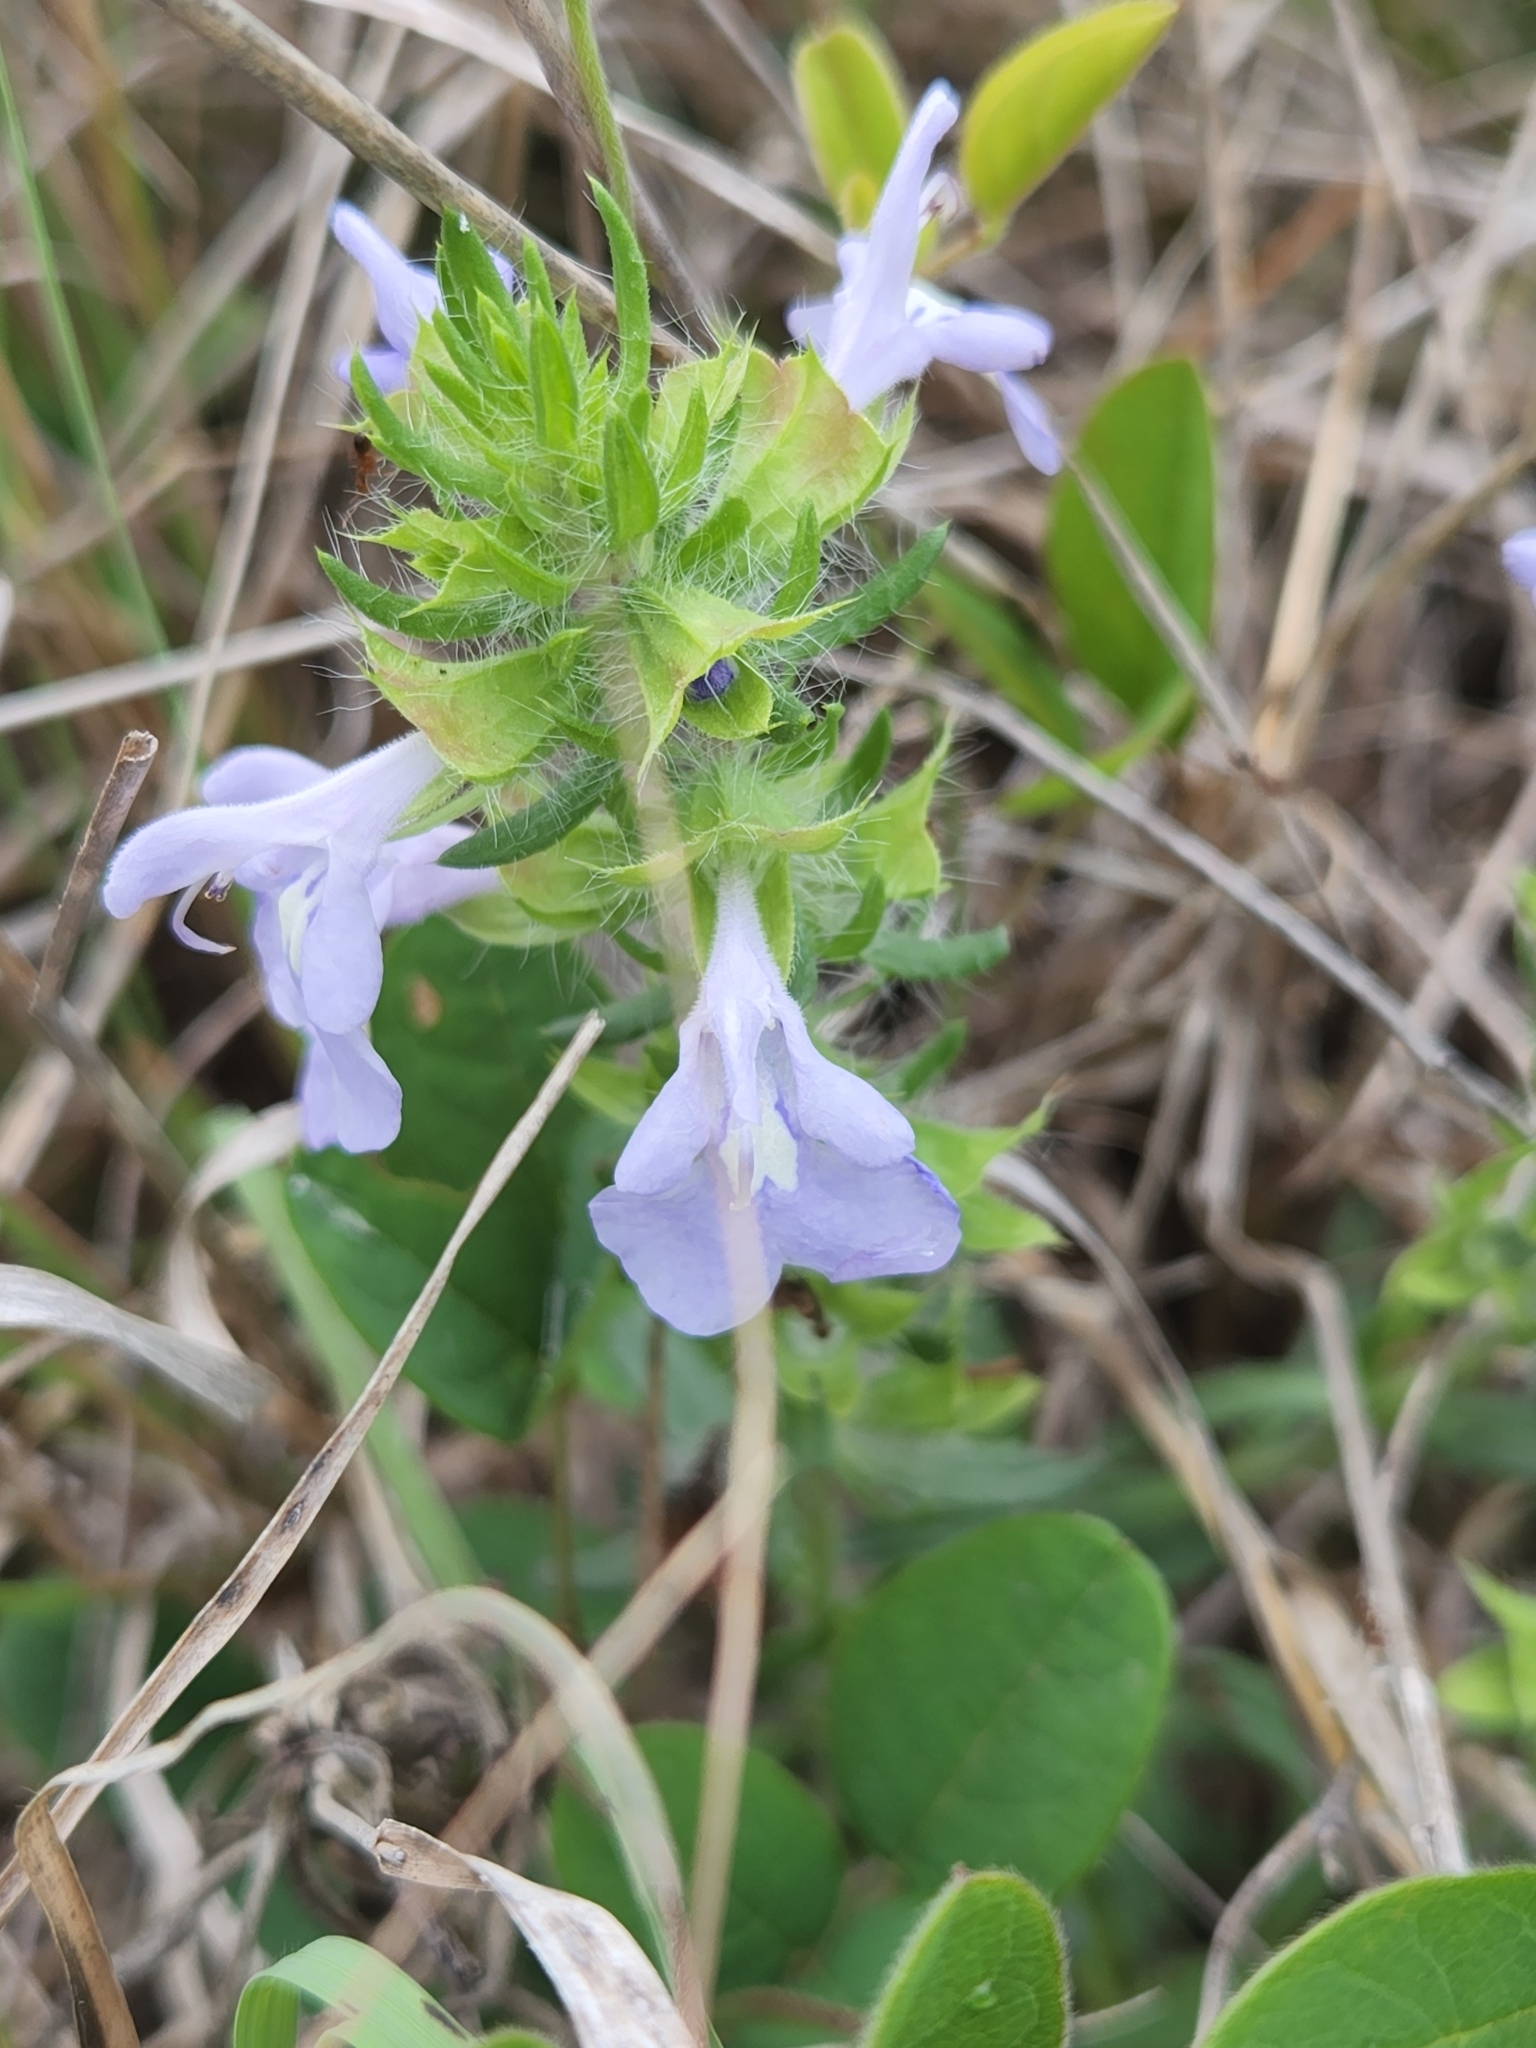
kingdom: Plantae
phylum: Tracheophyta
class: Magnoliopsida
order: Lamiales
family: Lamiaceae
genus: Salvia
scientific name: Salvia engelmannii
